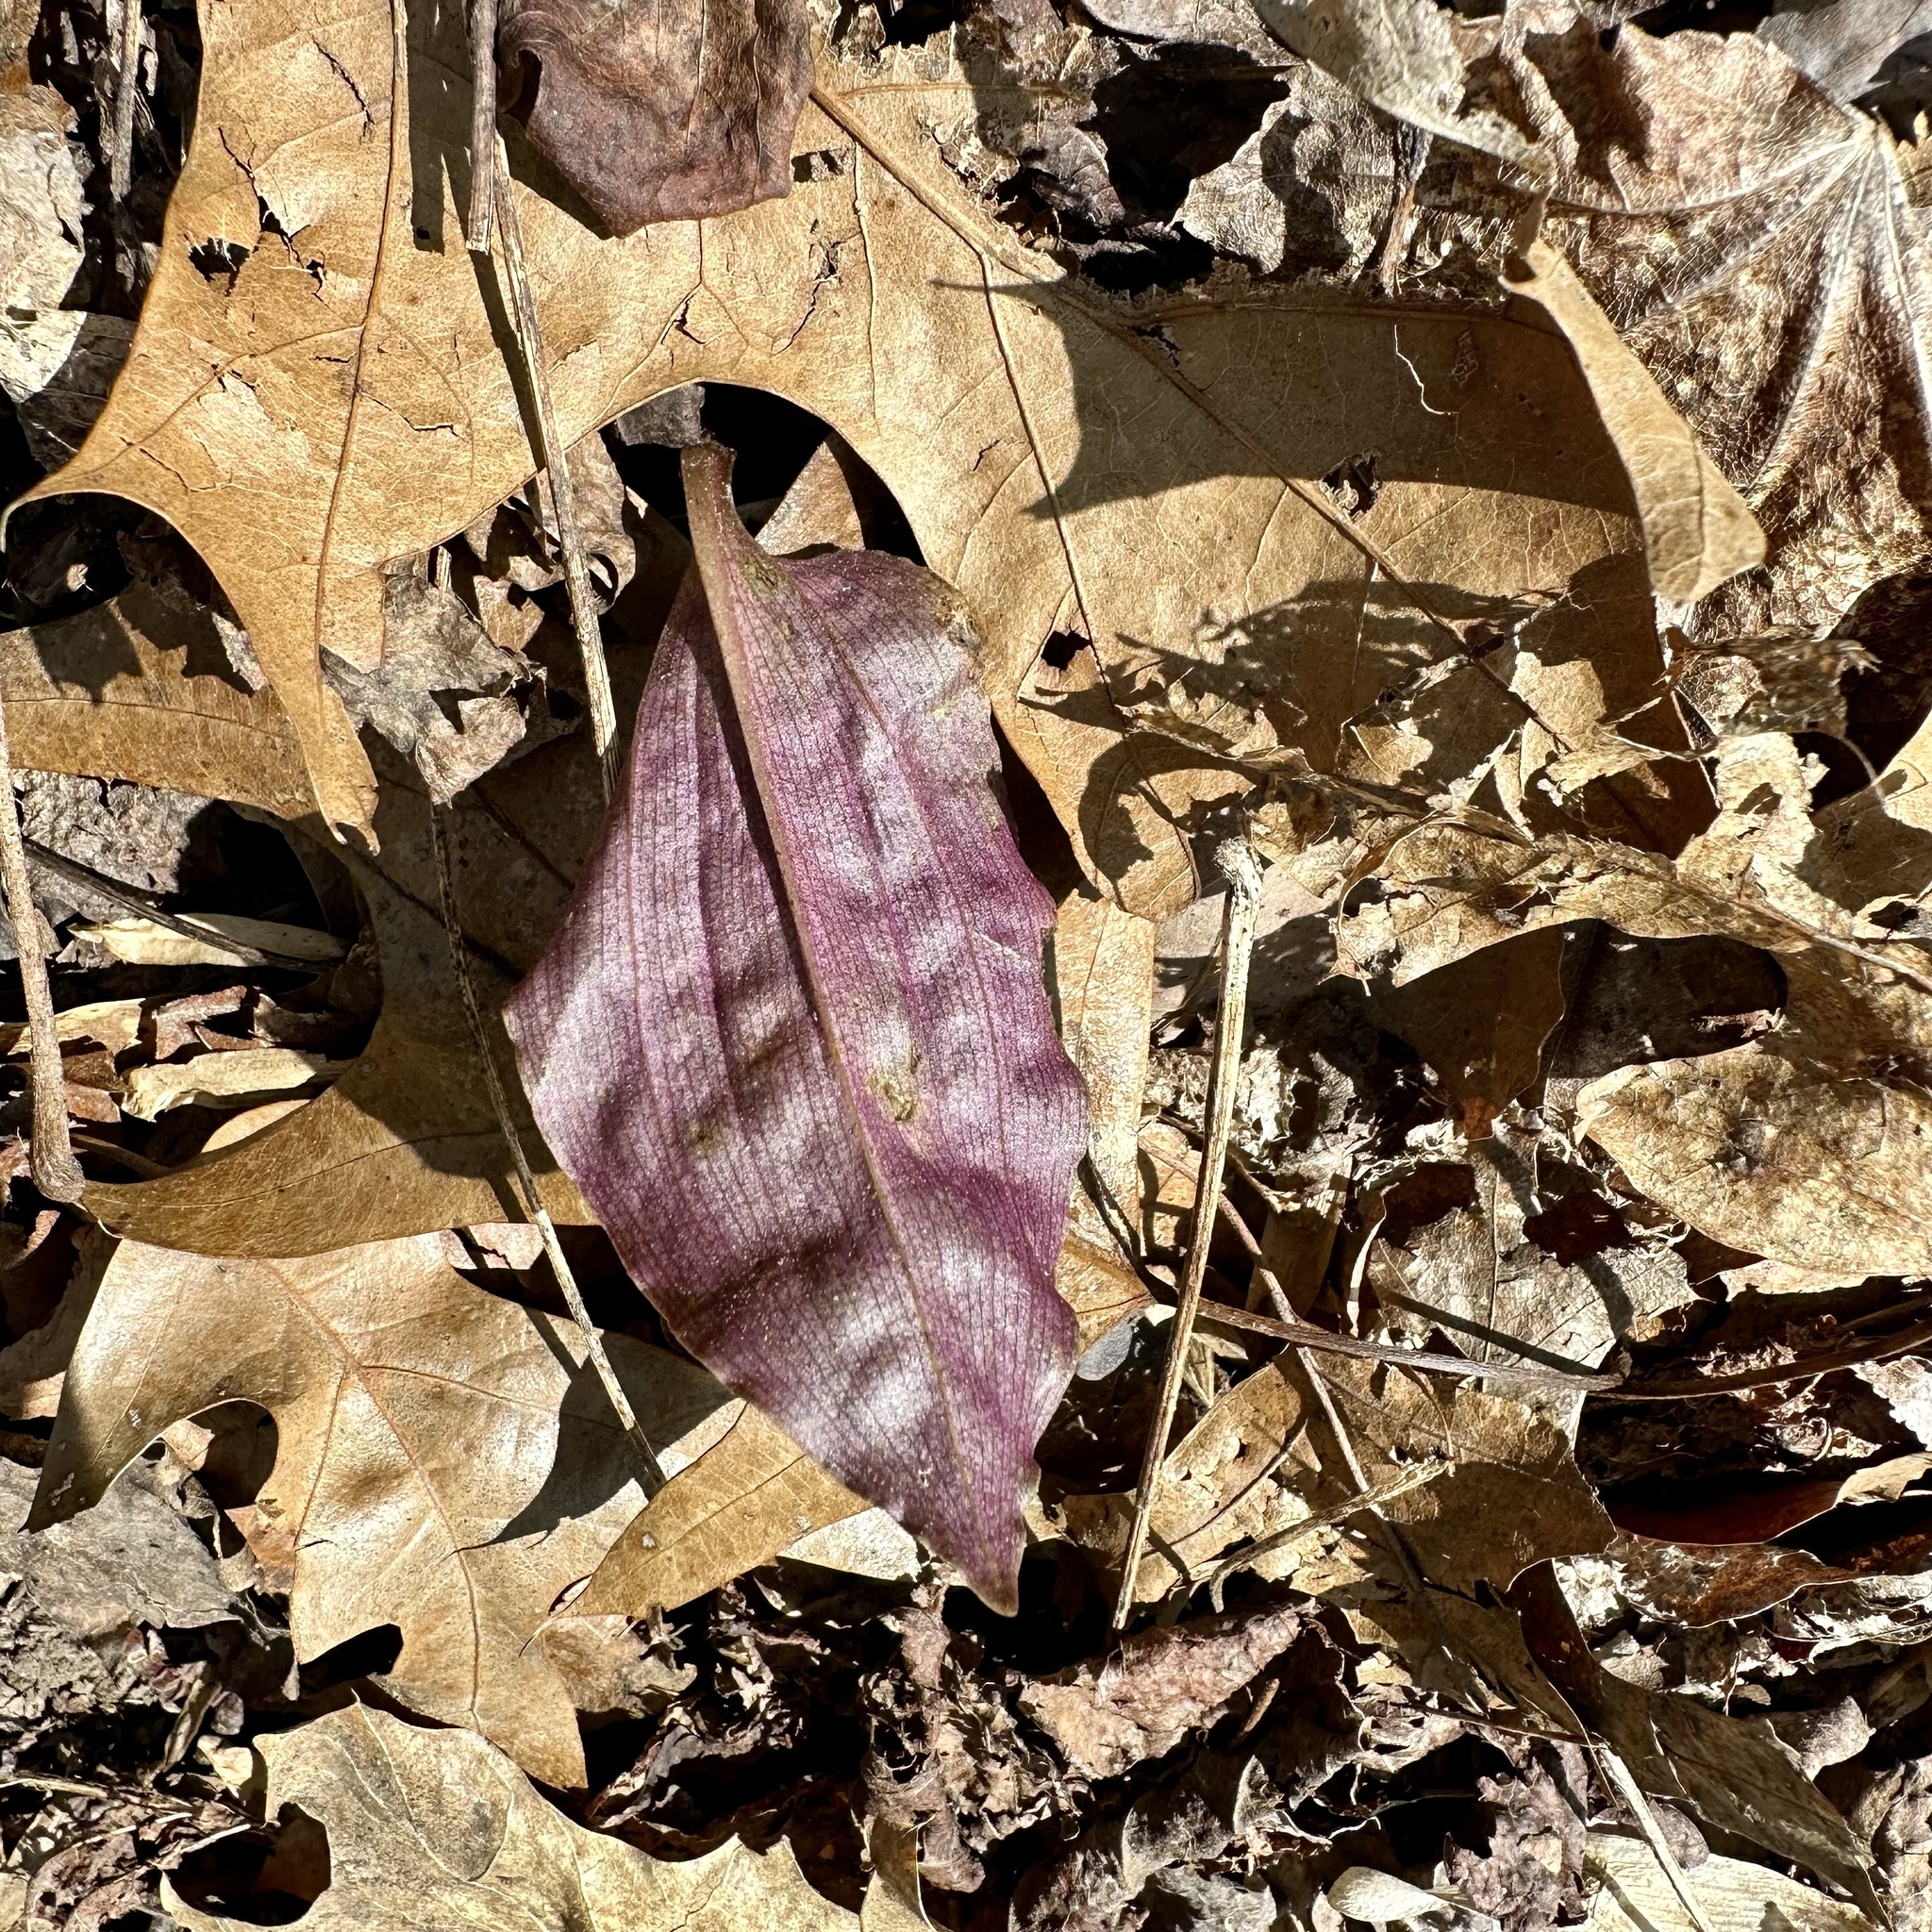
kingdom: Plantae
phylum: Tracheophyta
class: Liliopsida
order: Asparagales
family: Orchidaceae
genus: Tipularia
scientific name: Tipularia discolor
